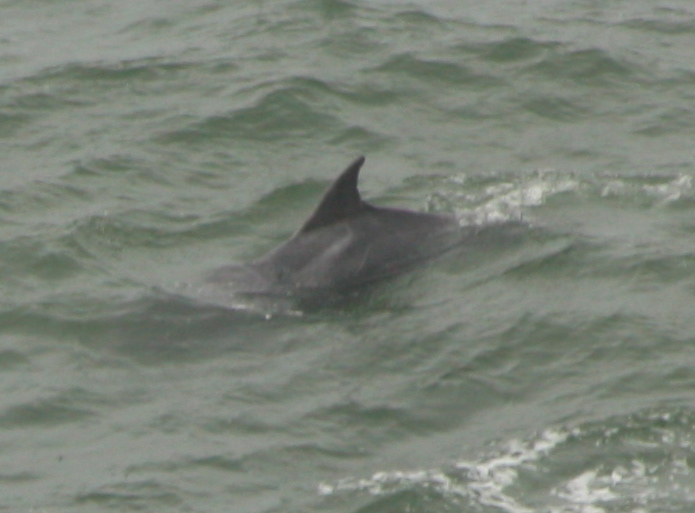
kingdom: Animalia
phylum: Chordata
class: Mammalia
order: Cetacea
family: Delphinidae
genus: Tursiops
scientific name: Tursiops truncatus
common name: Bottlenose dolphin
